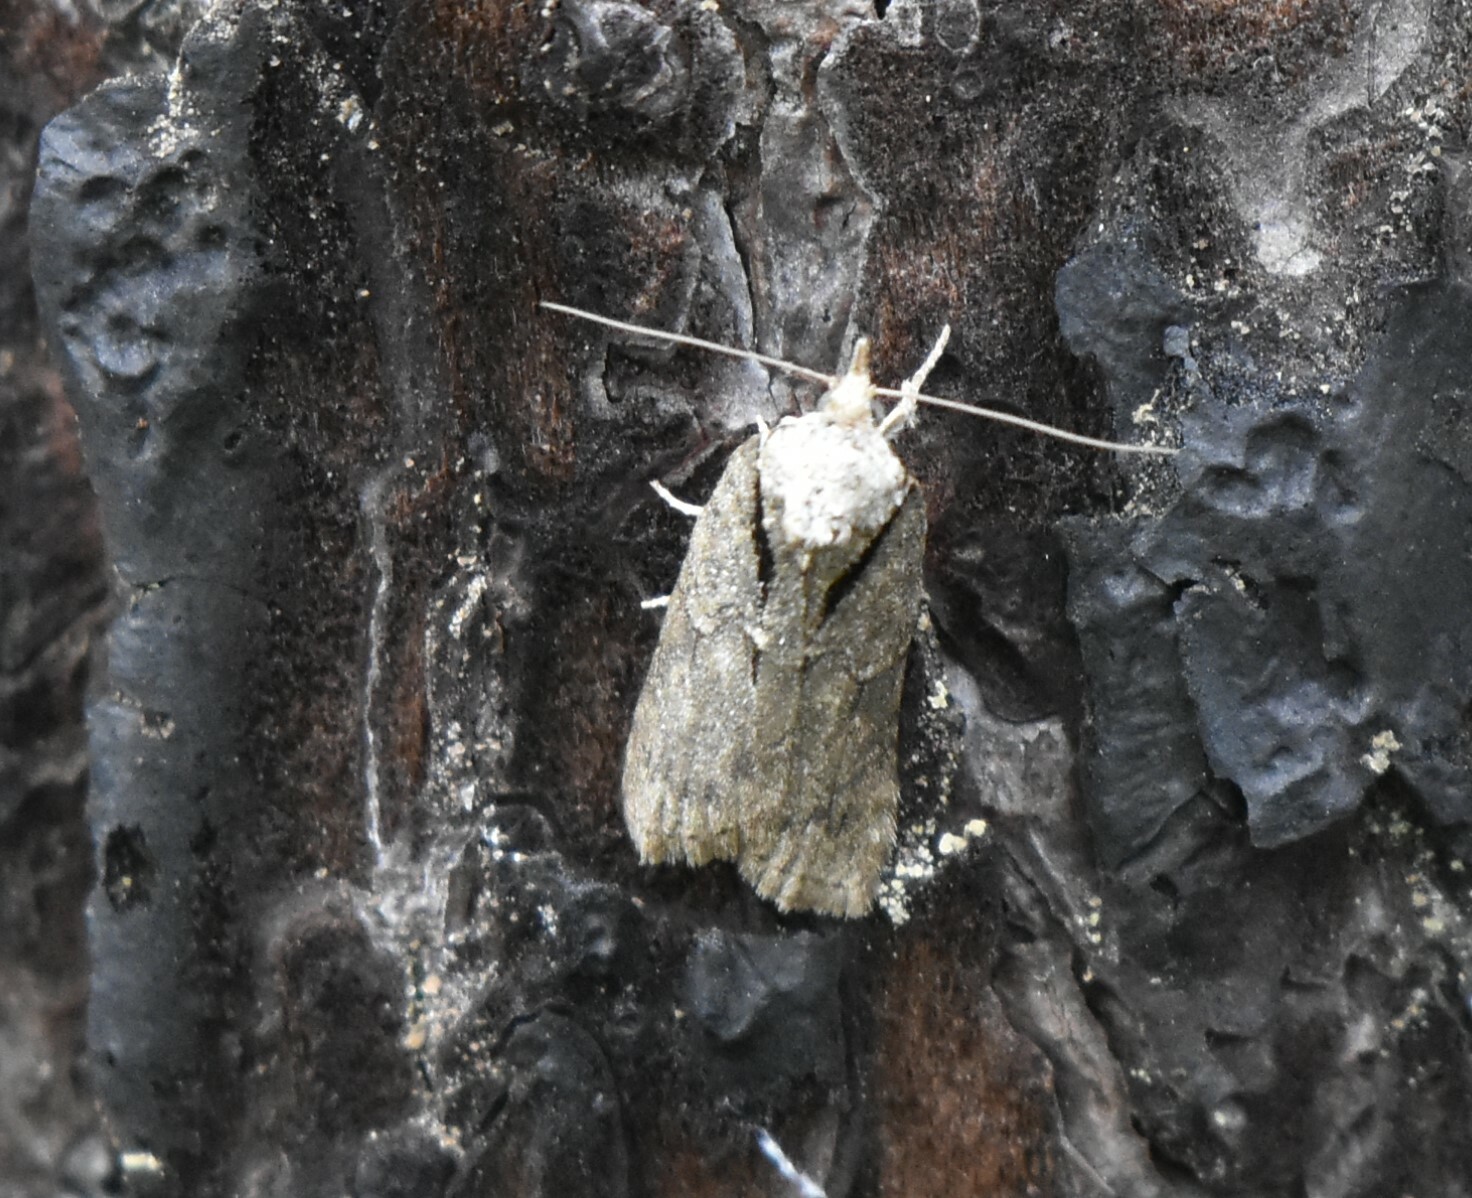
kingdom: Animalia
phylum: Arthropoda
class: Insecta
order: Lepidoptera
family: Nolidae
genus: Nycteola
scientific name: Nycteola degenerana
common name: Swallow nycteoline
